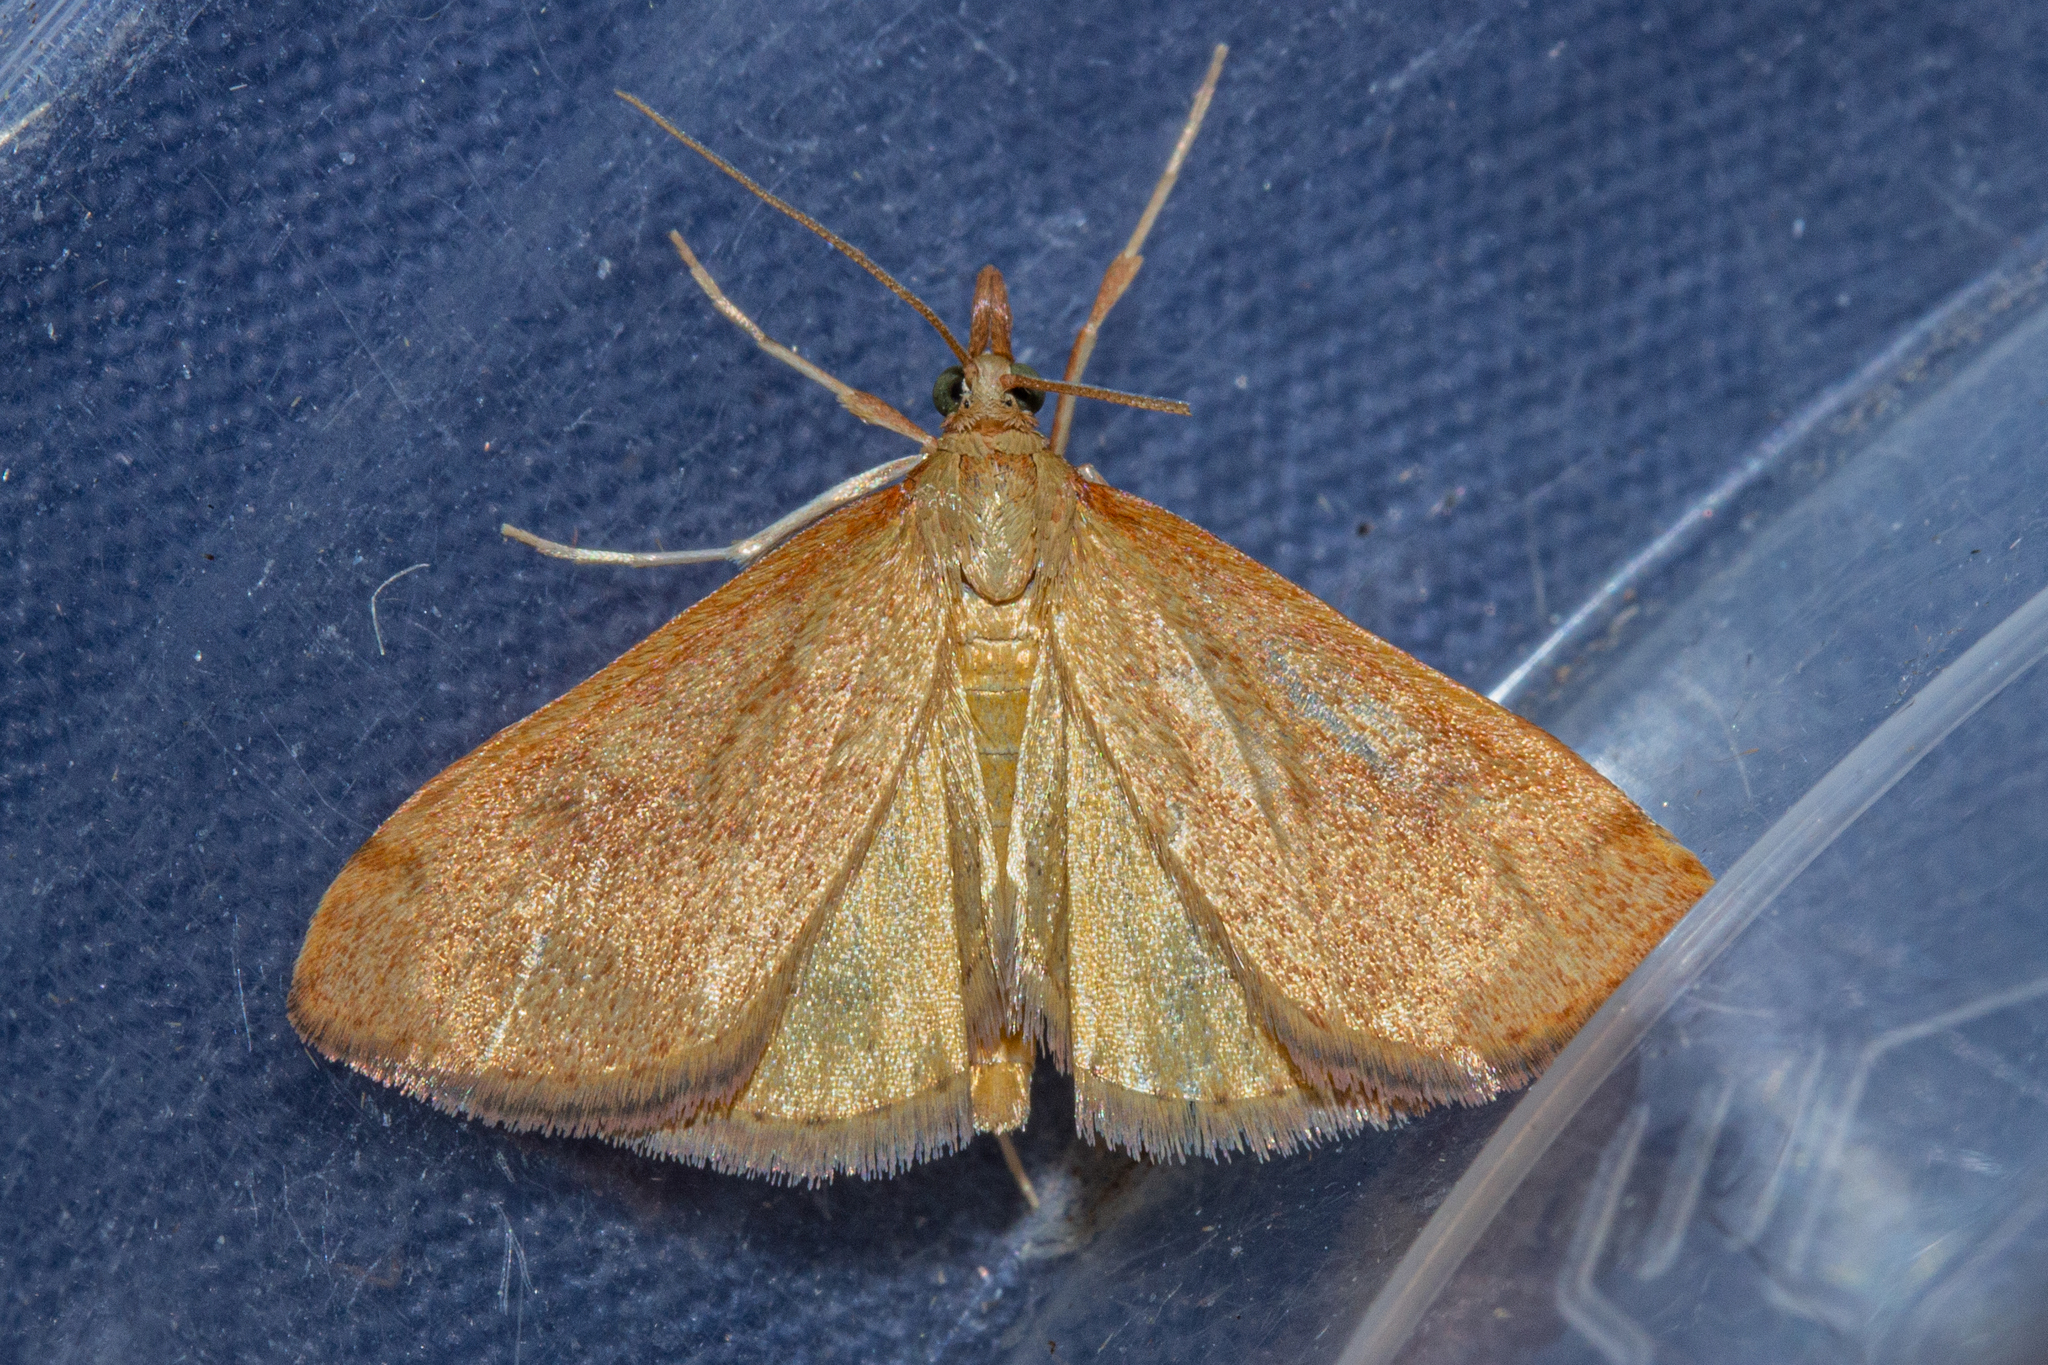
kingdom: Animalia
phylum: Arthropoda
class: Insecta
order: Lepidoptera
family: Crambidae
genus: Udea
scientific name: Udea Mnesictena flavidalis
